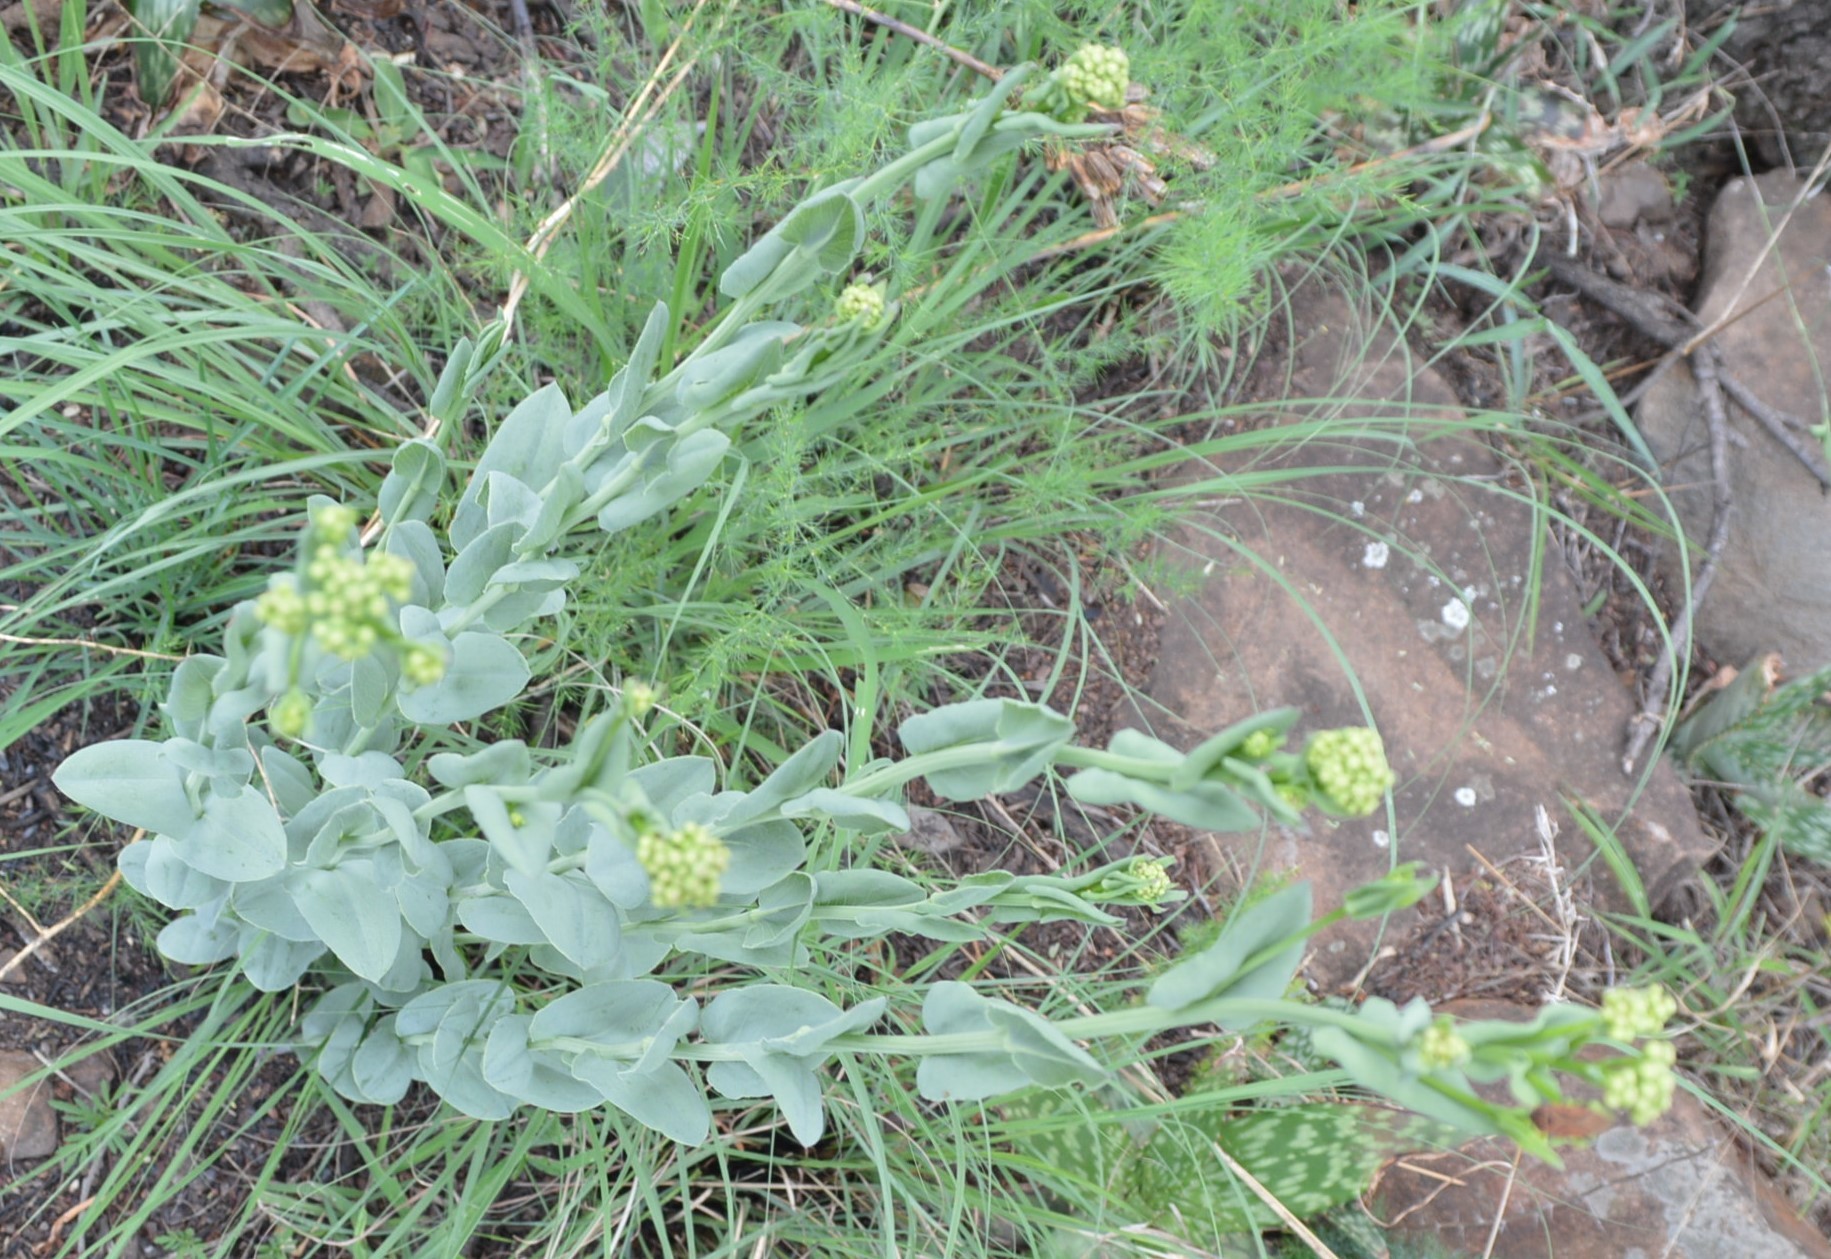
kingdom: Plantae
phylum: Tracheophyta
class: Magnoliopsida
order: Asterales
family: Asteraceae
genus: Senecio
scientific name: Senecio venosus
